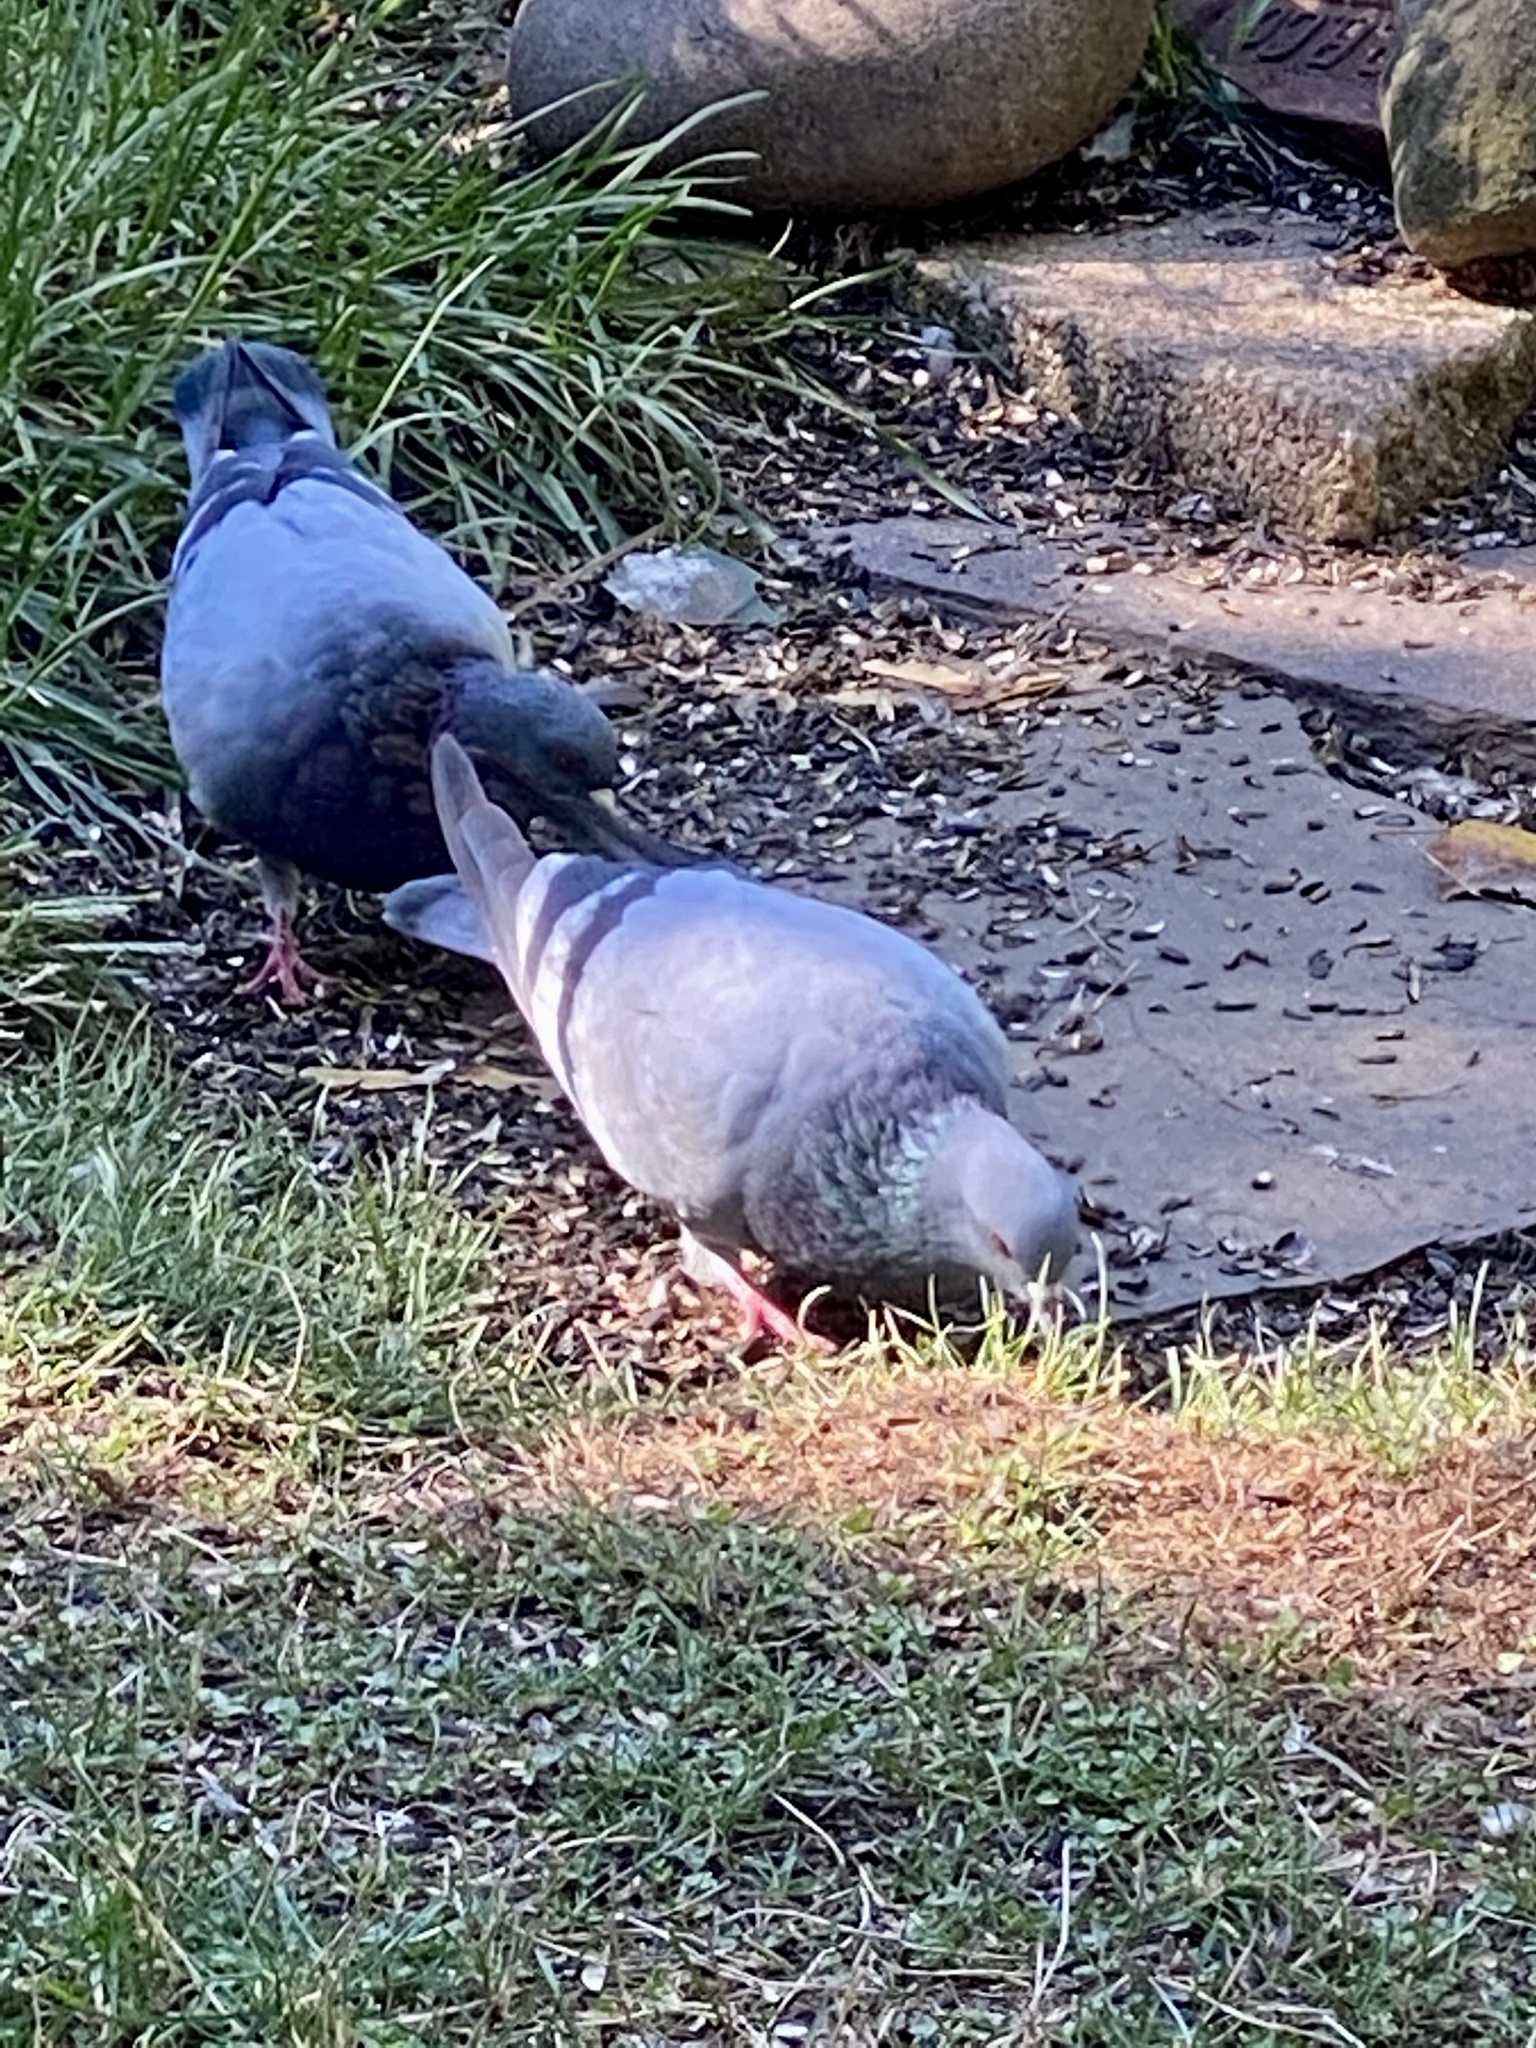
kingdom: Animalia
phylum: Chordata
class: Aves
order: Columbiformes
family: Columbidae
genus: Columba
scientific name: Columba livia
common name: Rock pigeon
